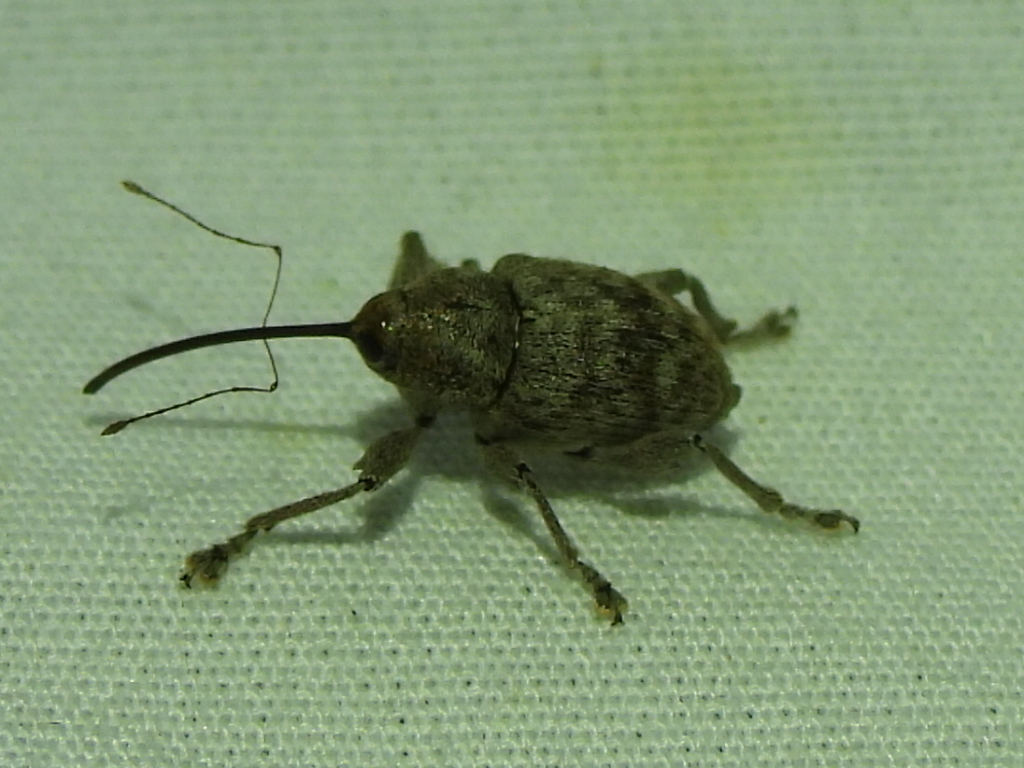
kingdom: Animalia
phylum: Arthropoda
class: Insecta
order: Coleoptera
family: Curculionidae
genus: Curculio
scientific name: Curculio
